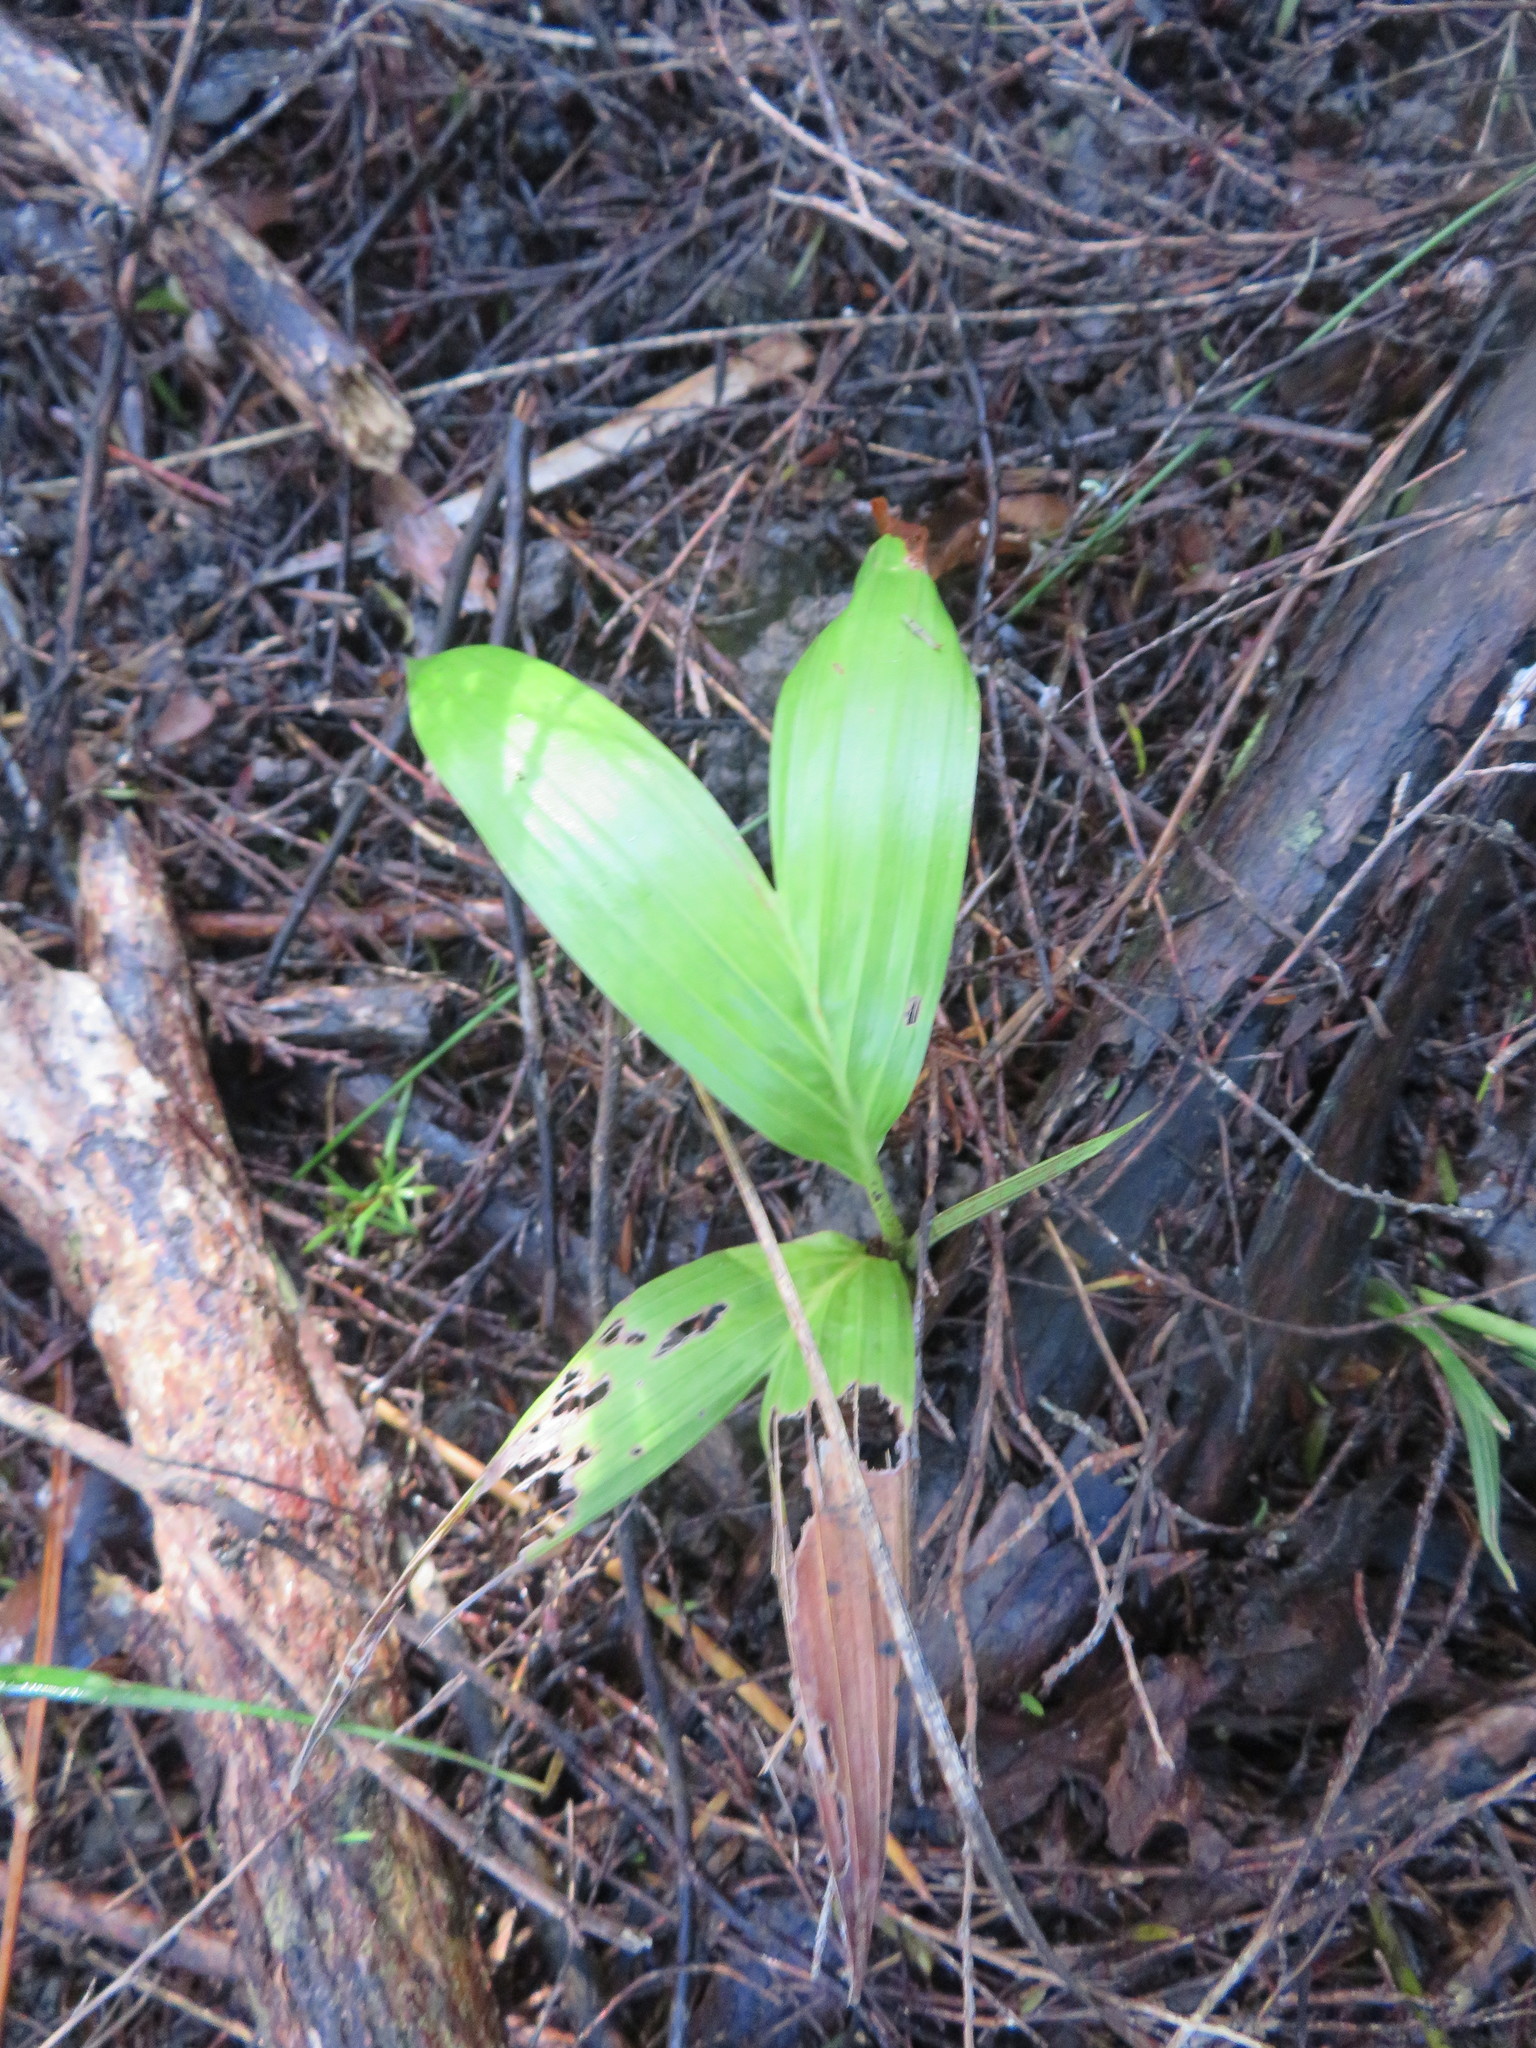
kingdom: Plantae
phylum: Tracheophyta
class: Liliopsida
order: Arecales
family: Arecaceae
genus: Archontophoenix
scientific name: Archontophoenix cunninghamiana
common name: Piccabeen bangalow palm
